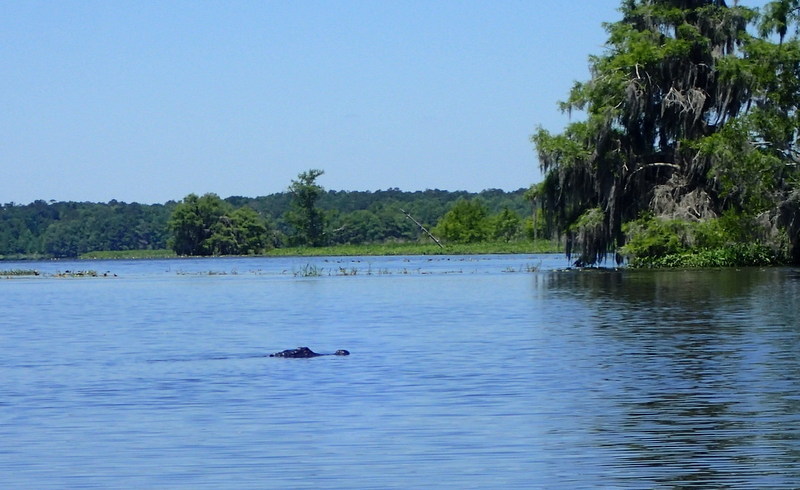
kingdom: Animalia
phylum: Chordata
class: Crocodylia
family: Alligatoridae
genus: Alligator
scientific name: Alligator mississippiensis
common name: American alligator
